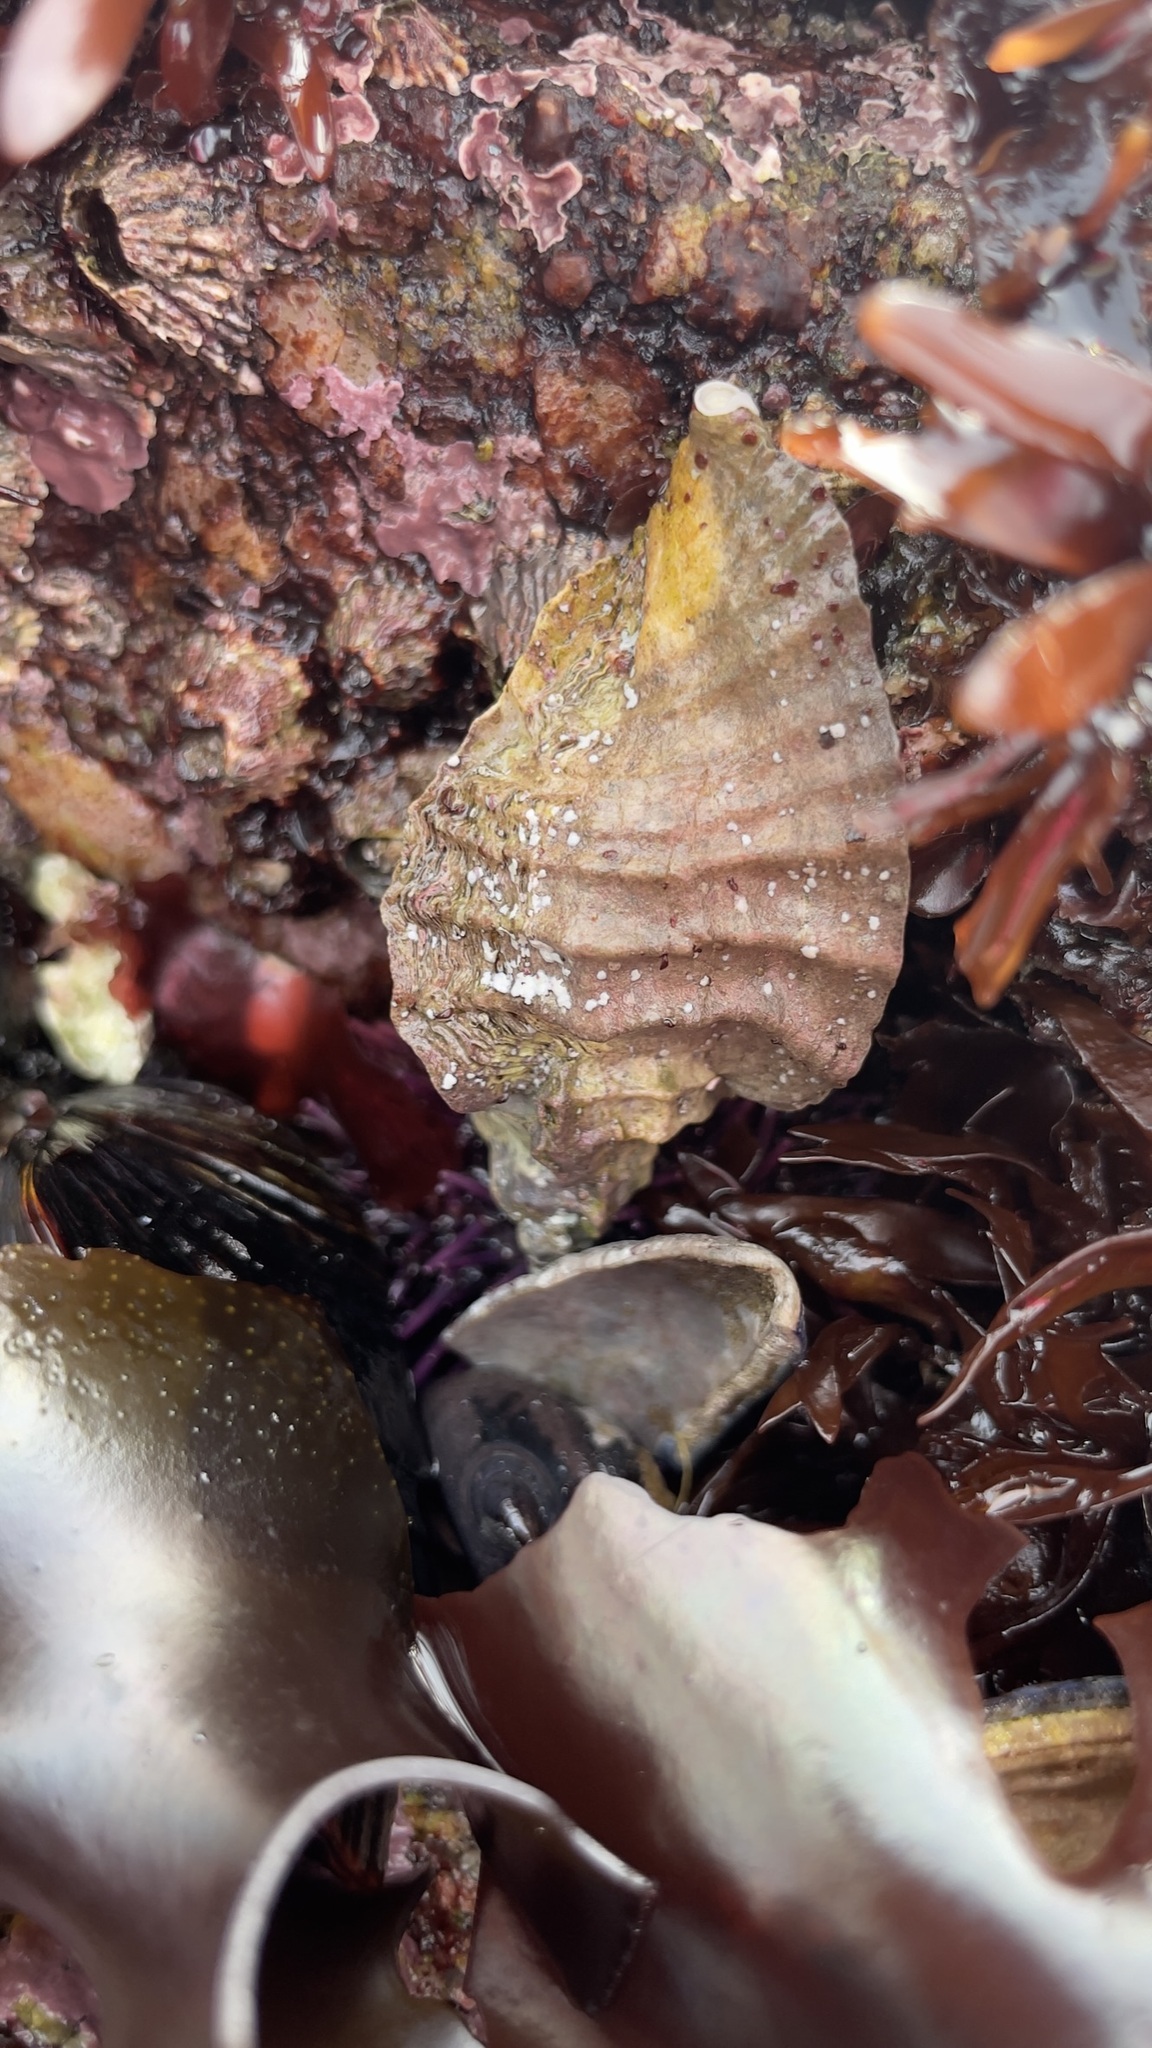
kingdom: Animalia
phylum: Mollusca
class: Gastropoda
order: Neogastropoda
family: Muricidae
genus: Ceratostoma
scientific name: Ceratostoma foliatum
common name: Foliate thorn purpura
